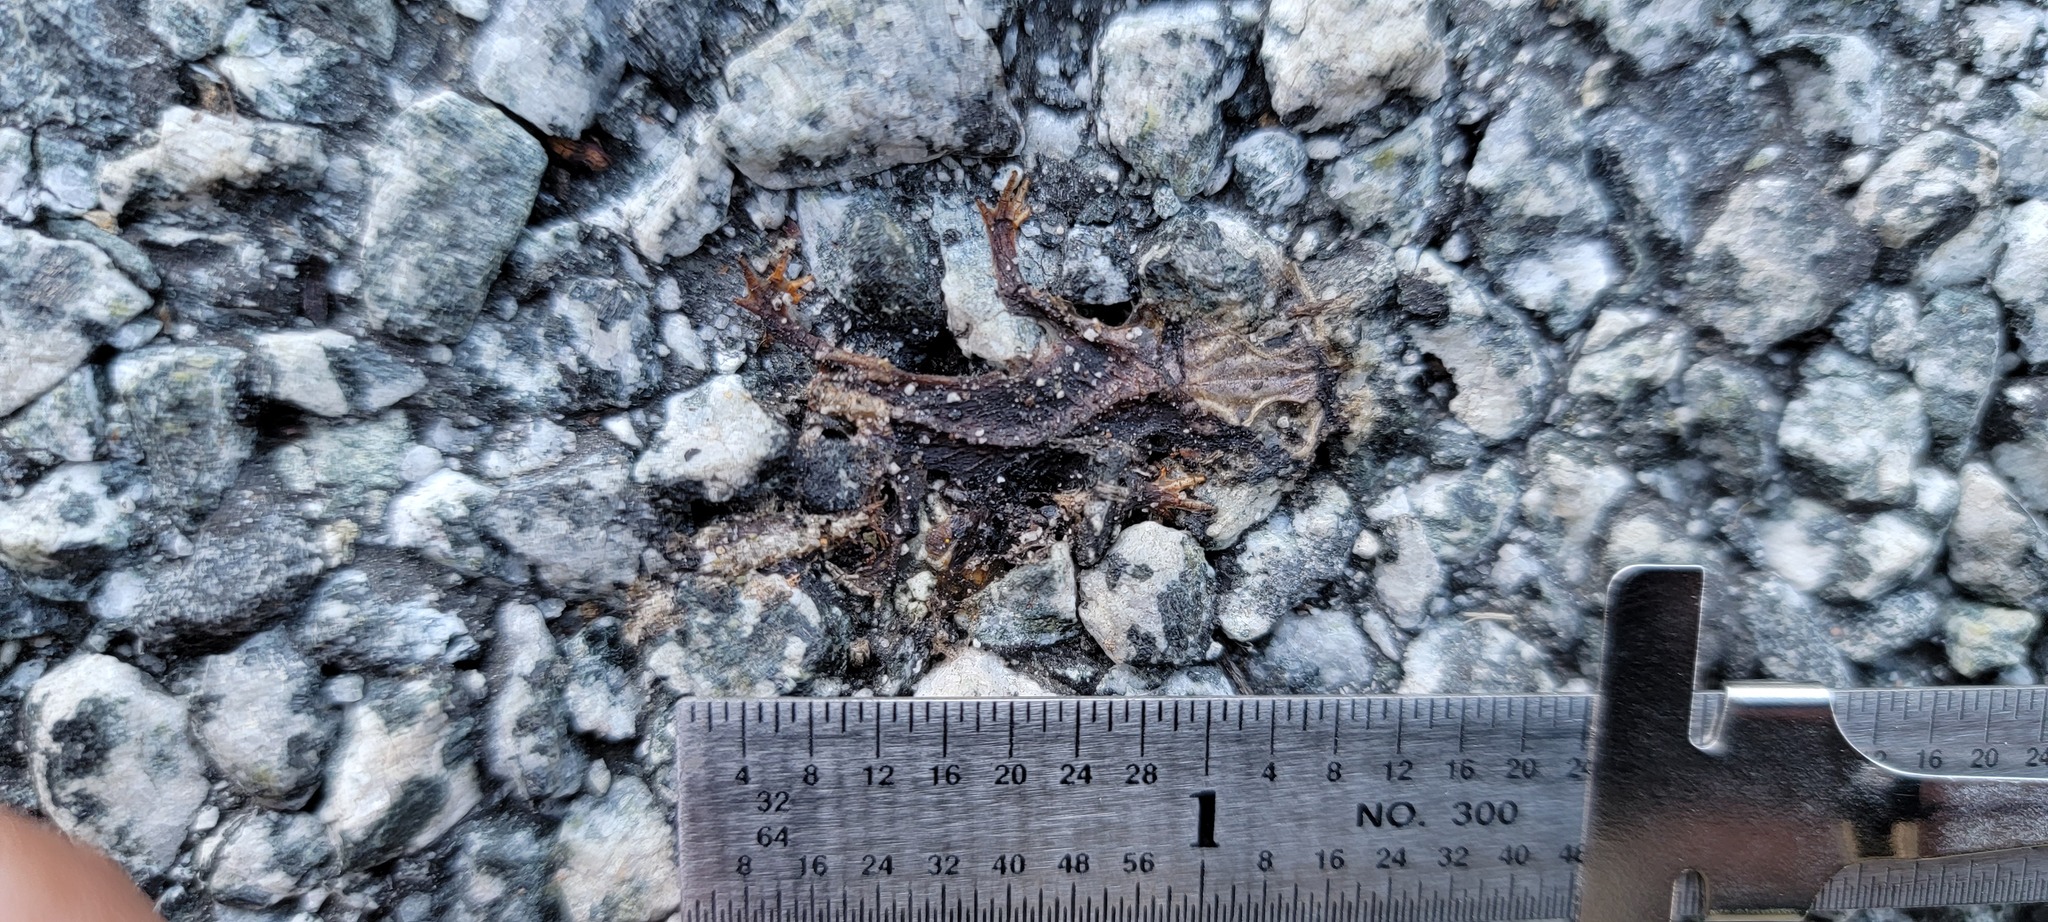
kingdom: Animalia
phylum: Chordata
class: Amphibia
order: Caudata
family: Salamandridae
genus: Taricha
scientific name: Taricha
